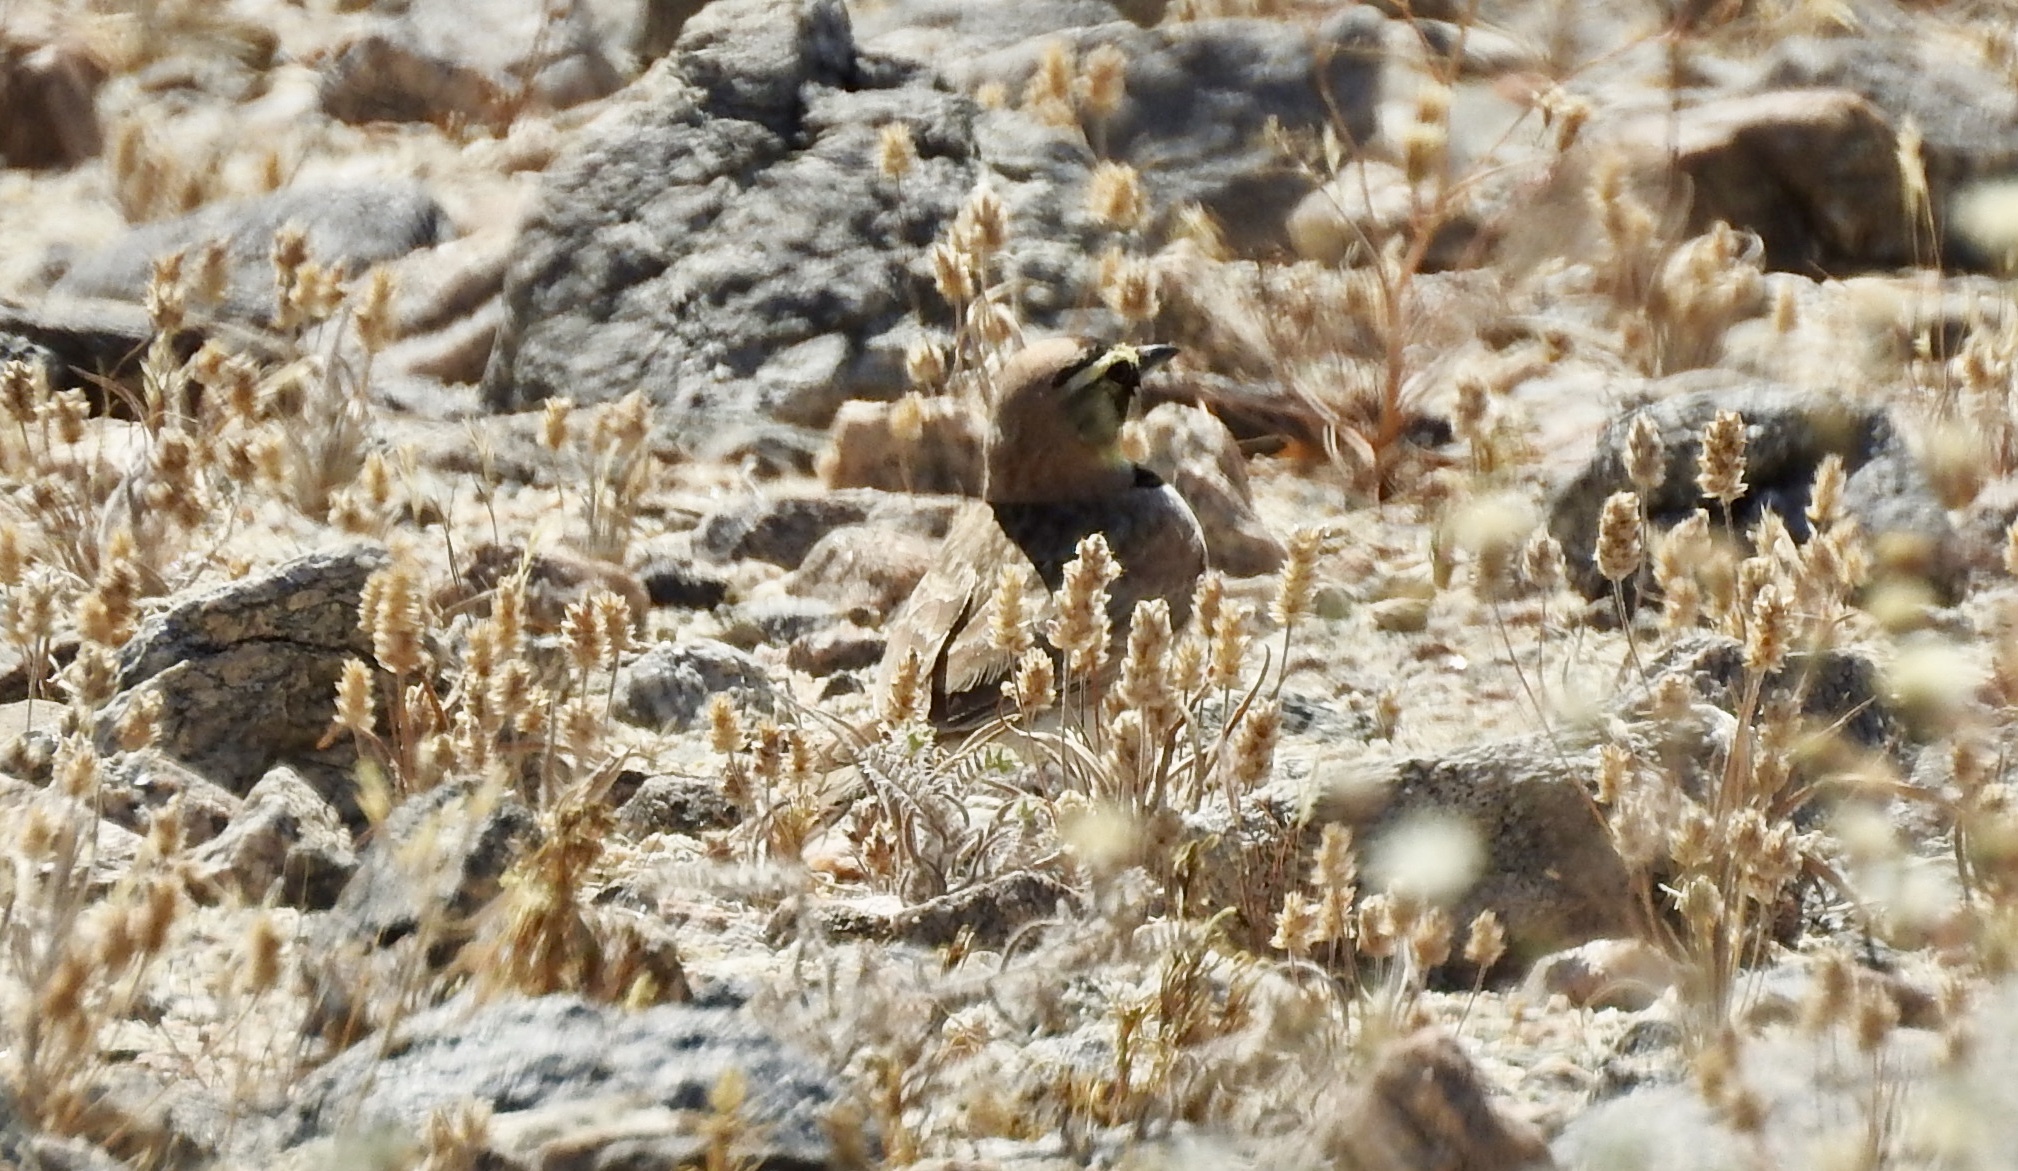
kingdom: Animalia
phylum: Chordata
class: Aves
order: Passeriformes
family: Alaudidae
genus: Eremophila
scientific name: Eremophila alpestris
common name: Horned lark
